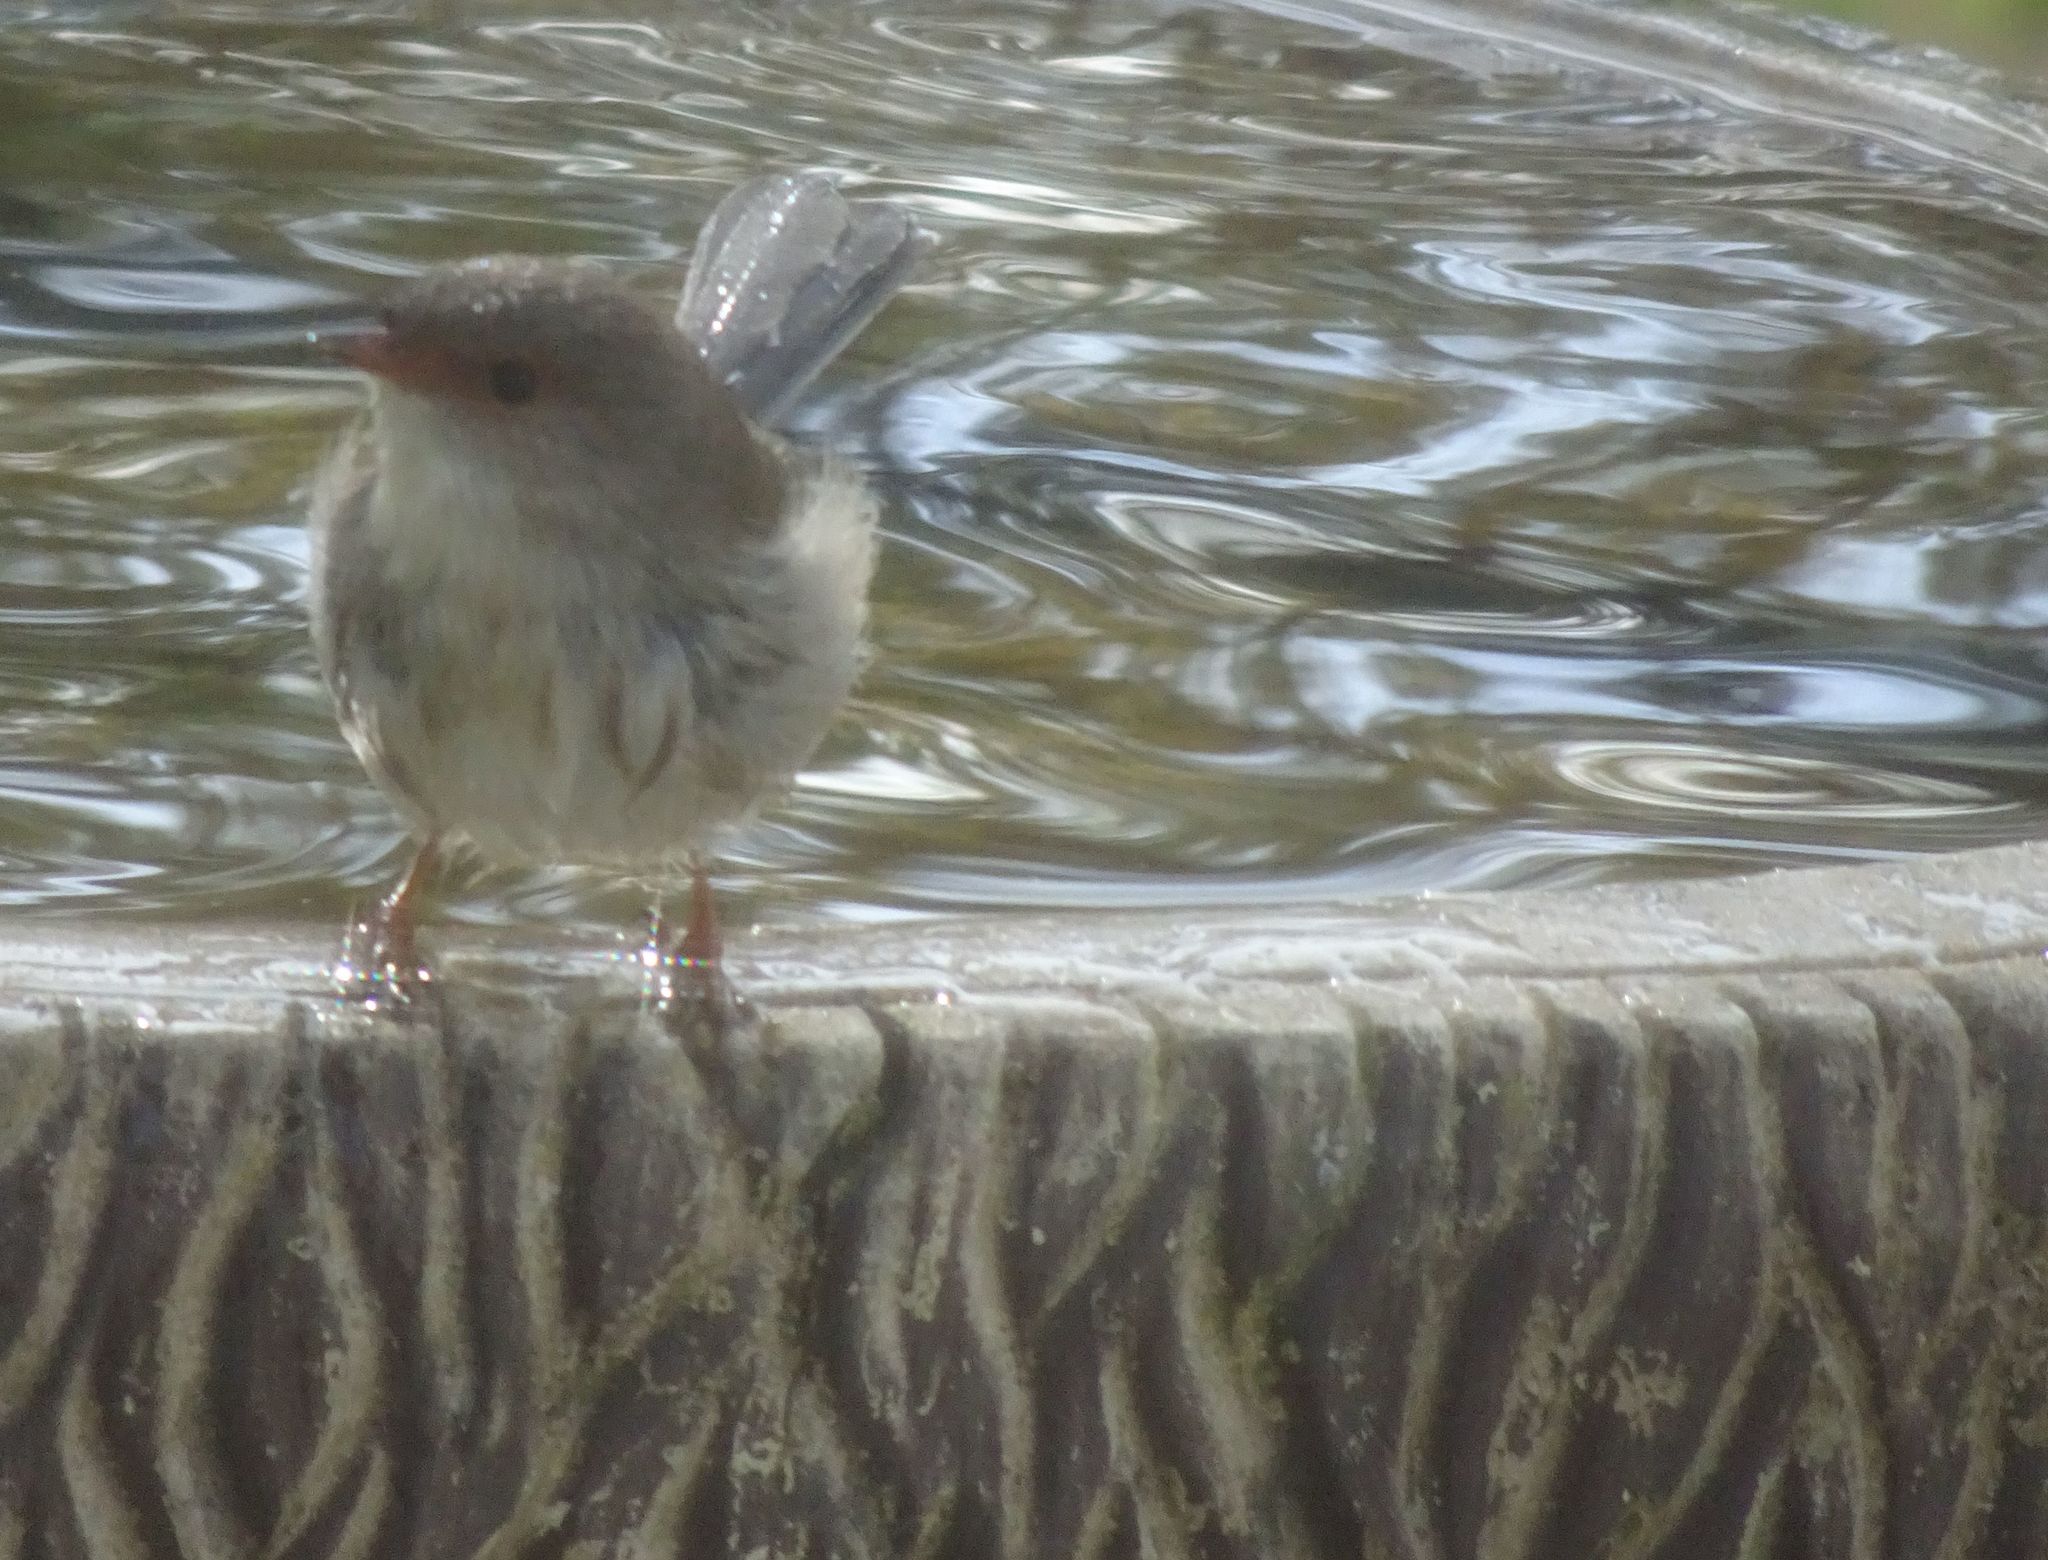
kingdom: Animalia
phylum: Chordata
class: Aves
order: Passeriformes
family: Maluridae
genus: Malurus
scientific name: Malurus cyaneus
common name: Superb fairywren
